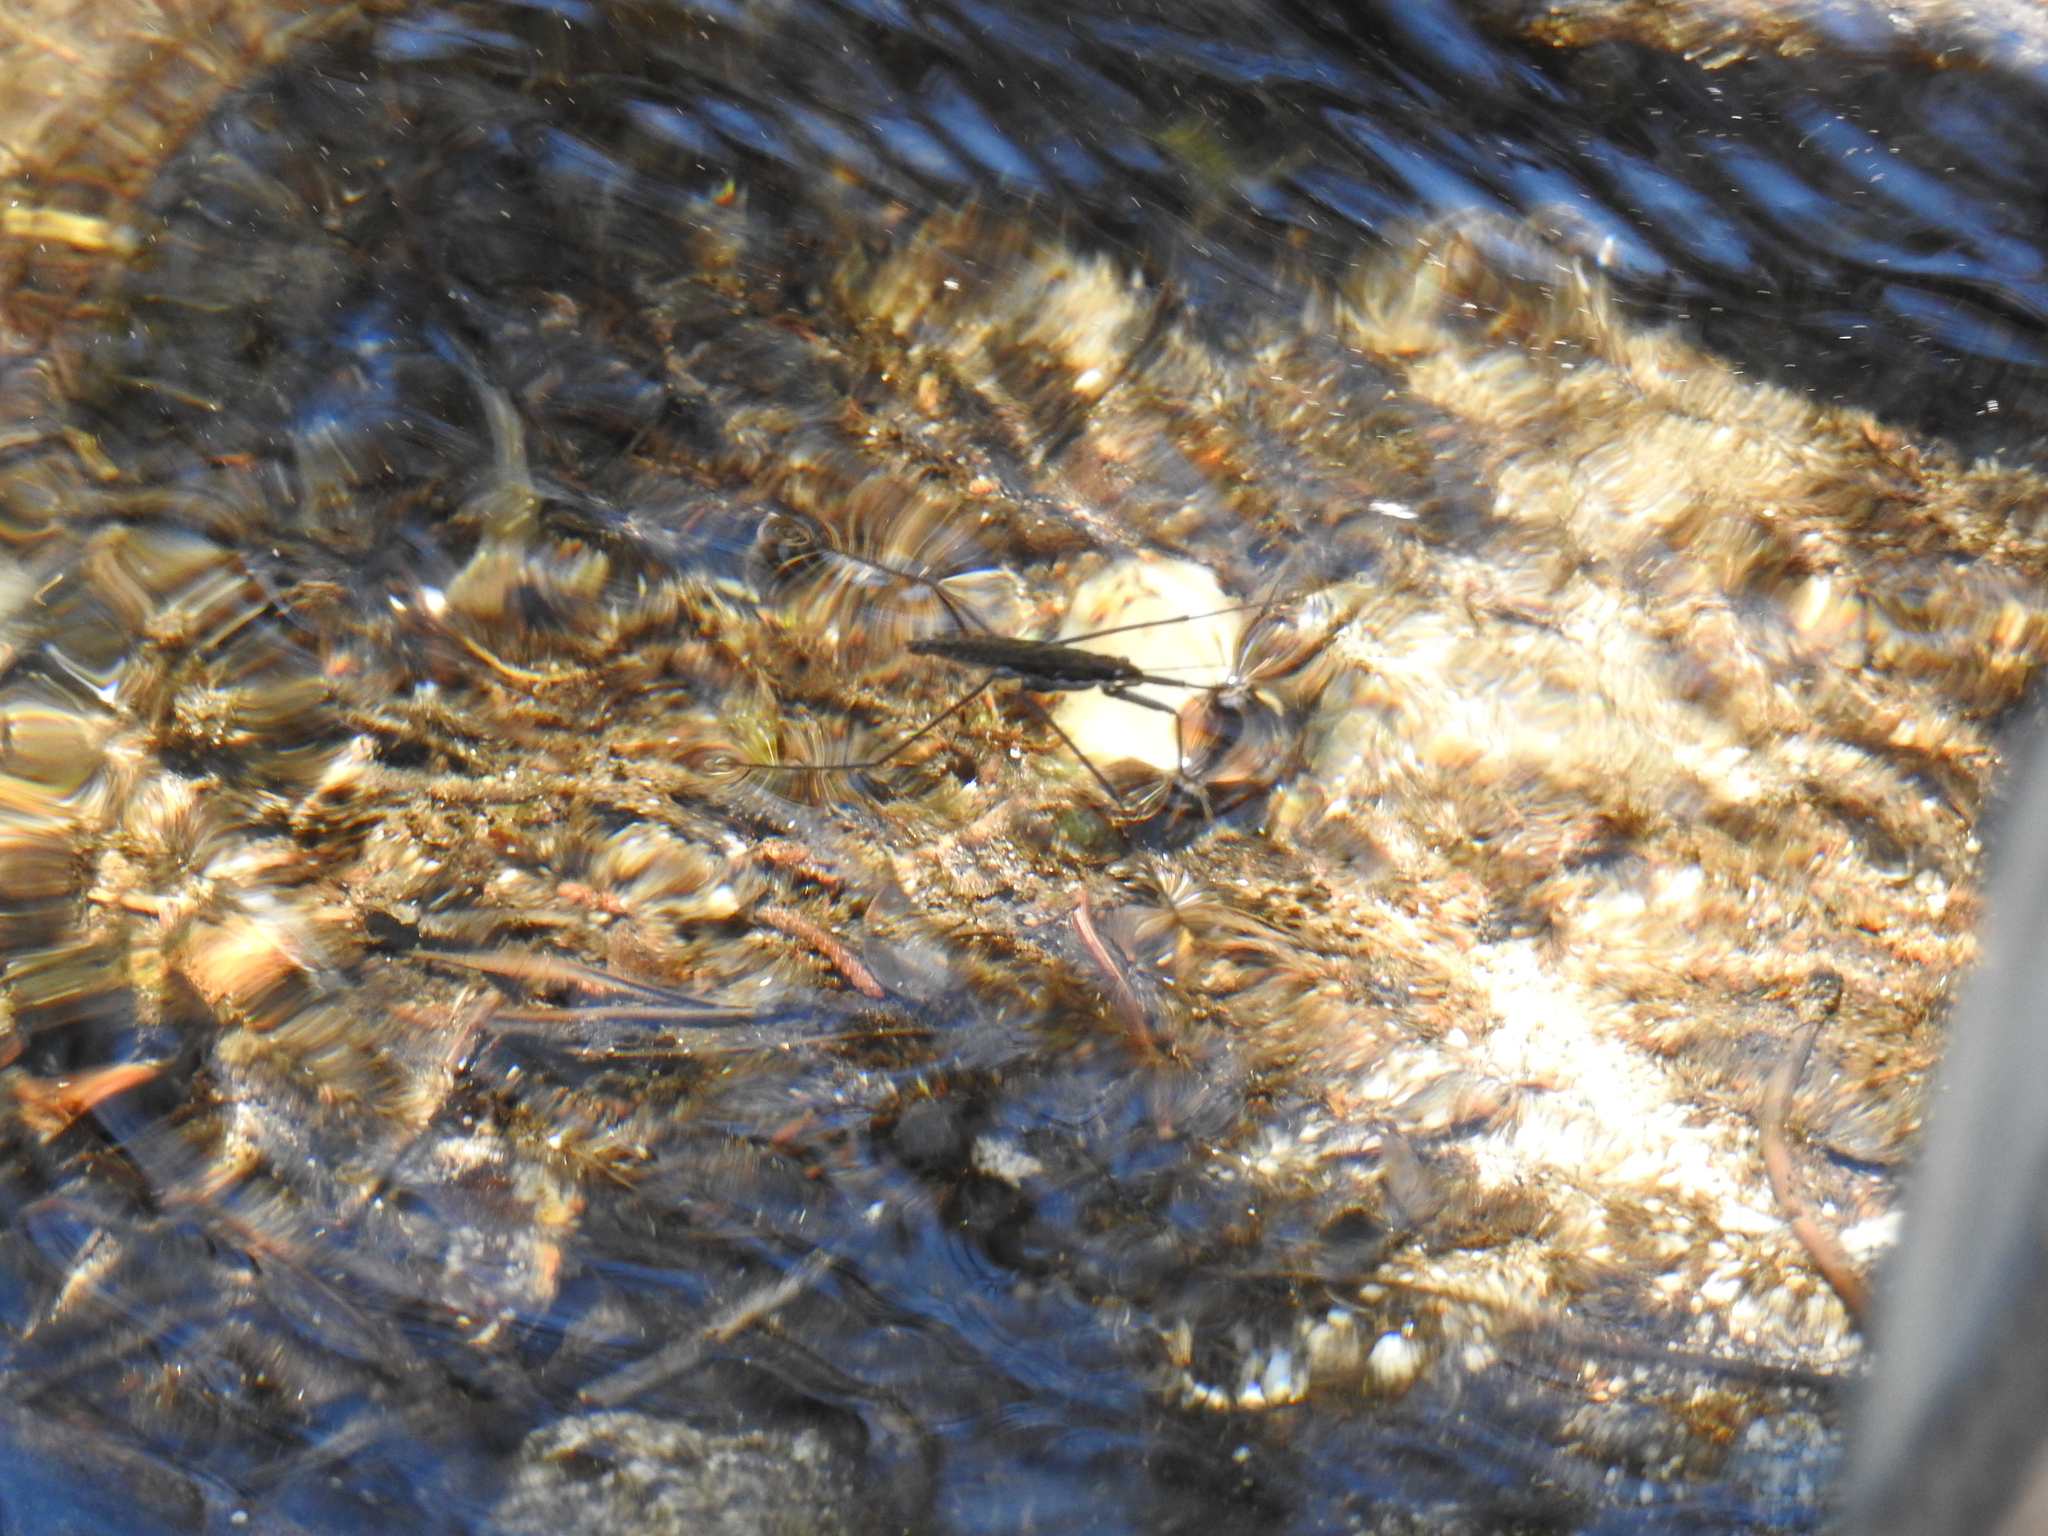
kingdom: Animalia
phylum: Arthropoda
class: Insecta
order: Hemiptera
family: Gerridae
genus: Aquarius
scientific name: Aquarius remigis
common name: Common water strider
